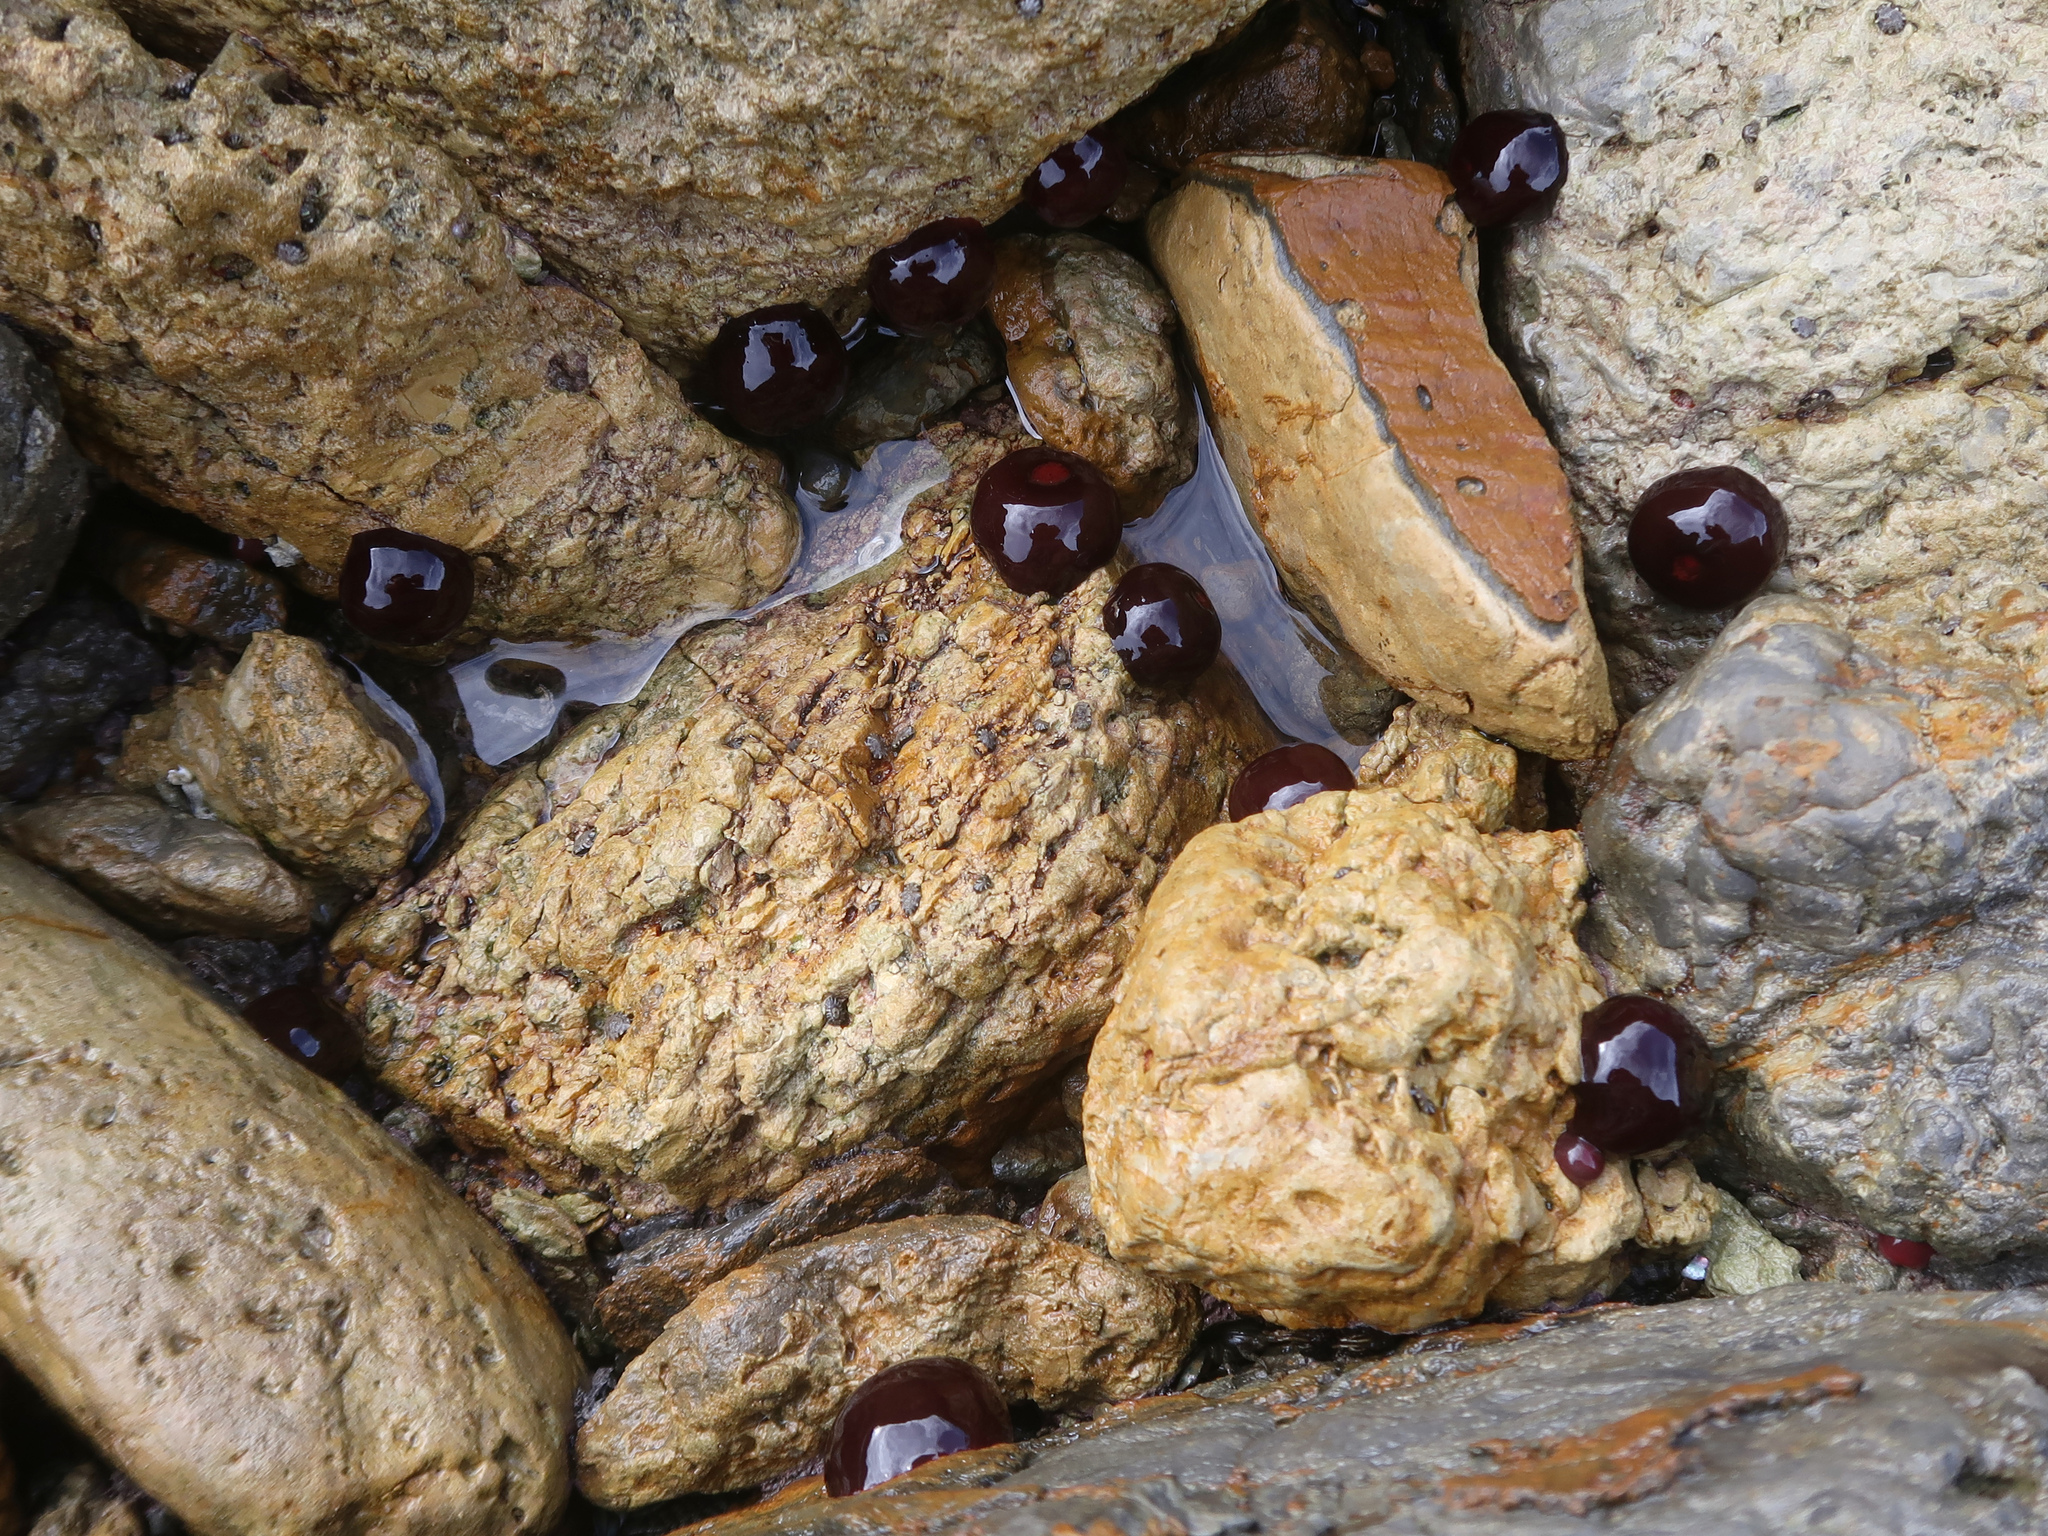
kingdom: Animalia
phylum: Cnidaria
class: Anthozoa
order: Actiniaria
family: Actiniidae
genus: Actinia
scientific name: Actinia tenebrosa
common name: Waratah anemone
